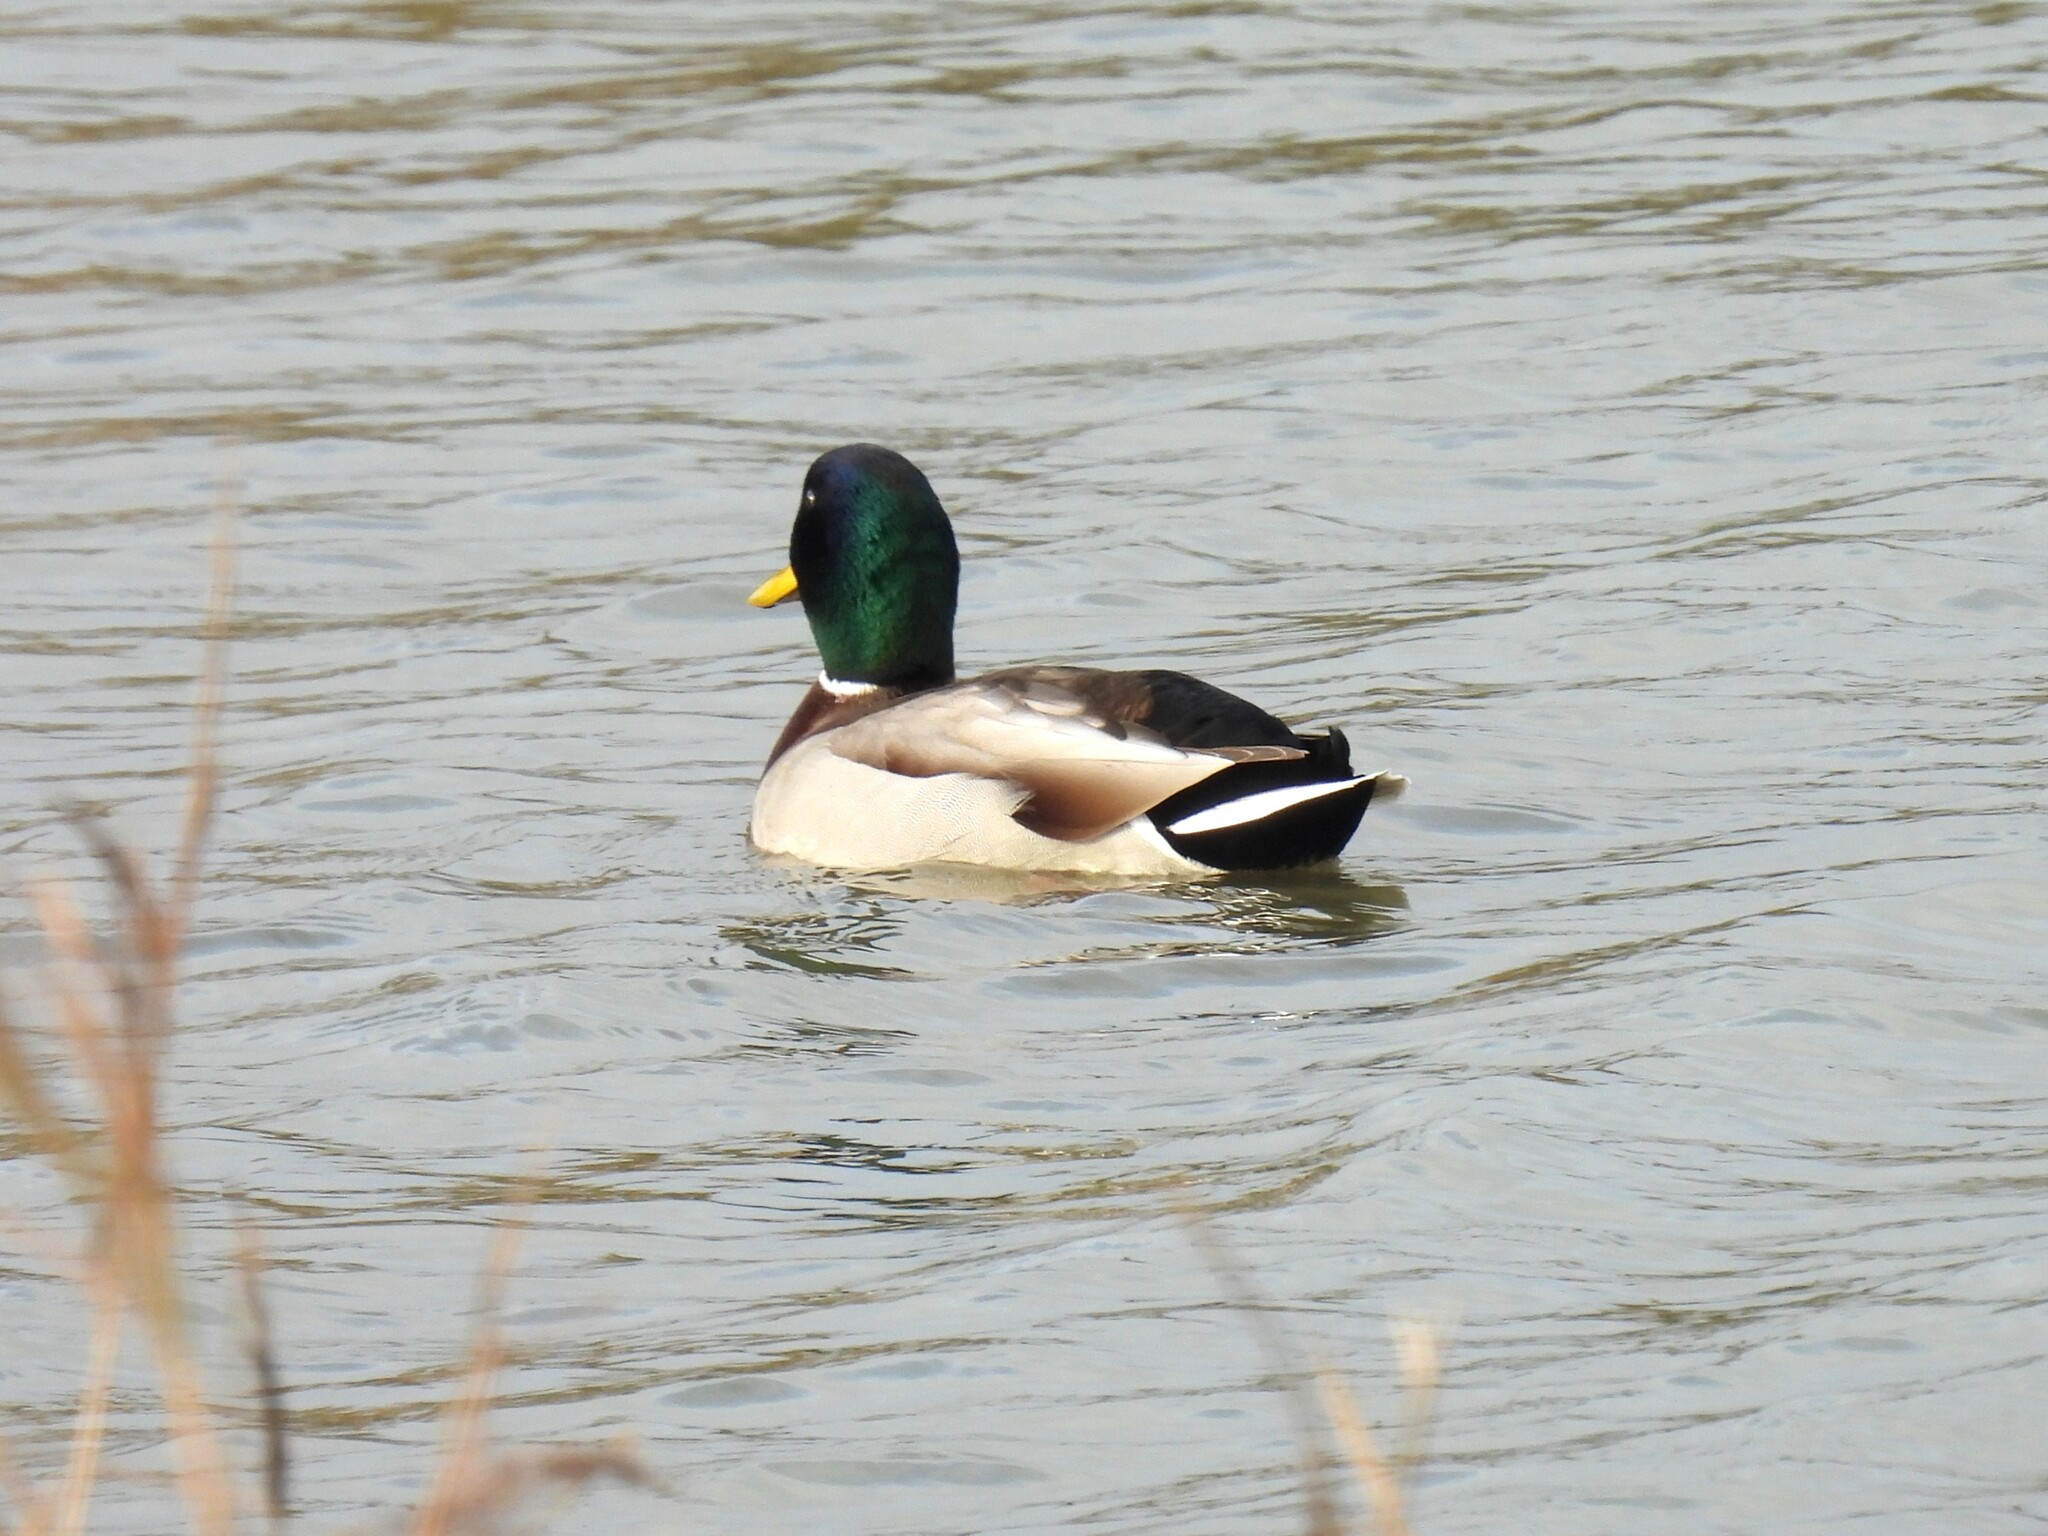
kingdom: Animalia
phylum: Chordata
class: Aves
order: Anseriformes
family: Anatidae
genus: Anas
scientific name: Anas platyrhynchos
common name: Mallard
